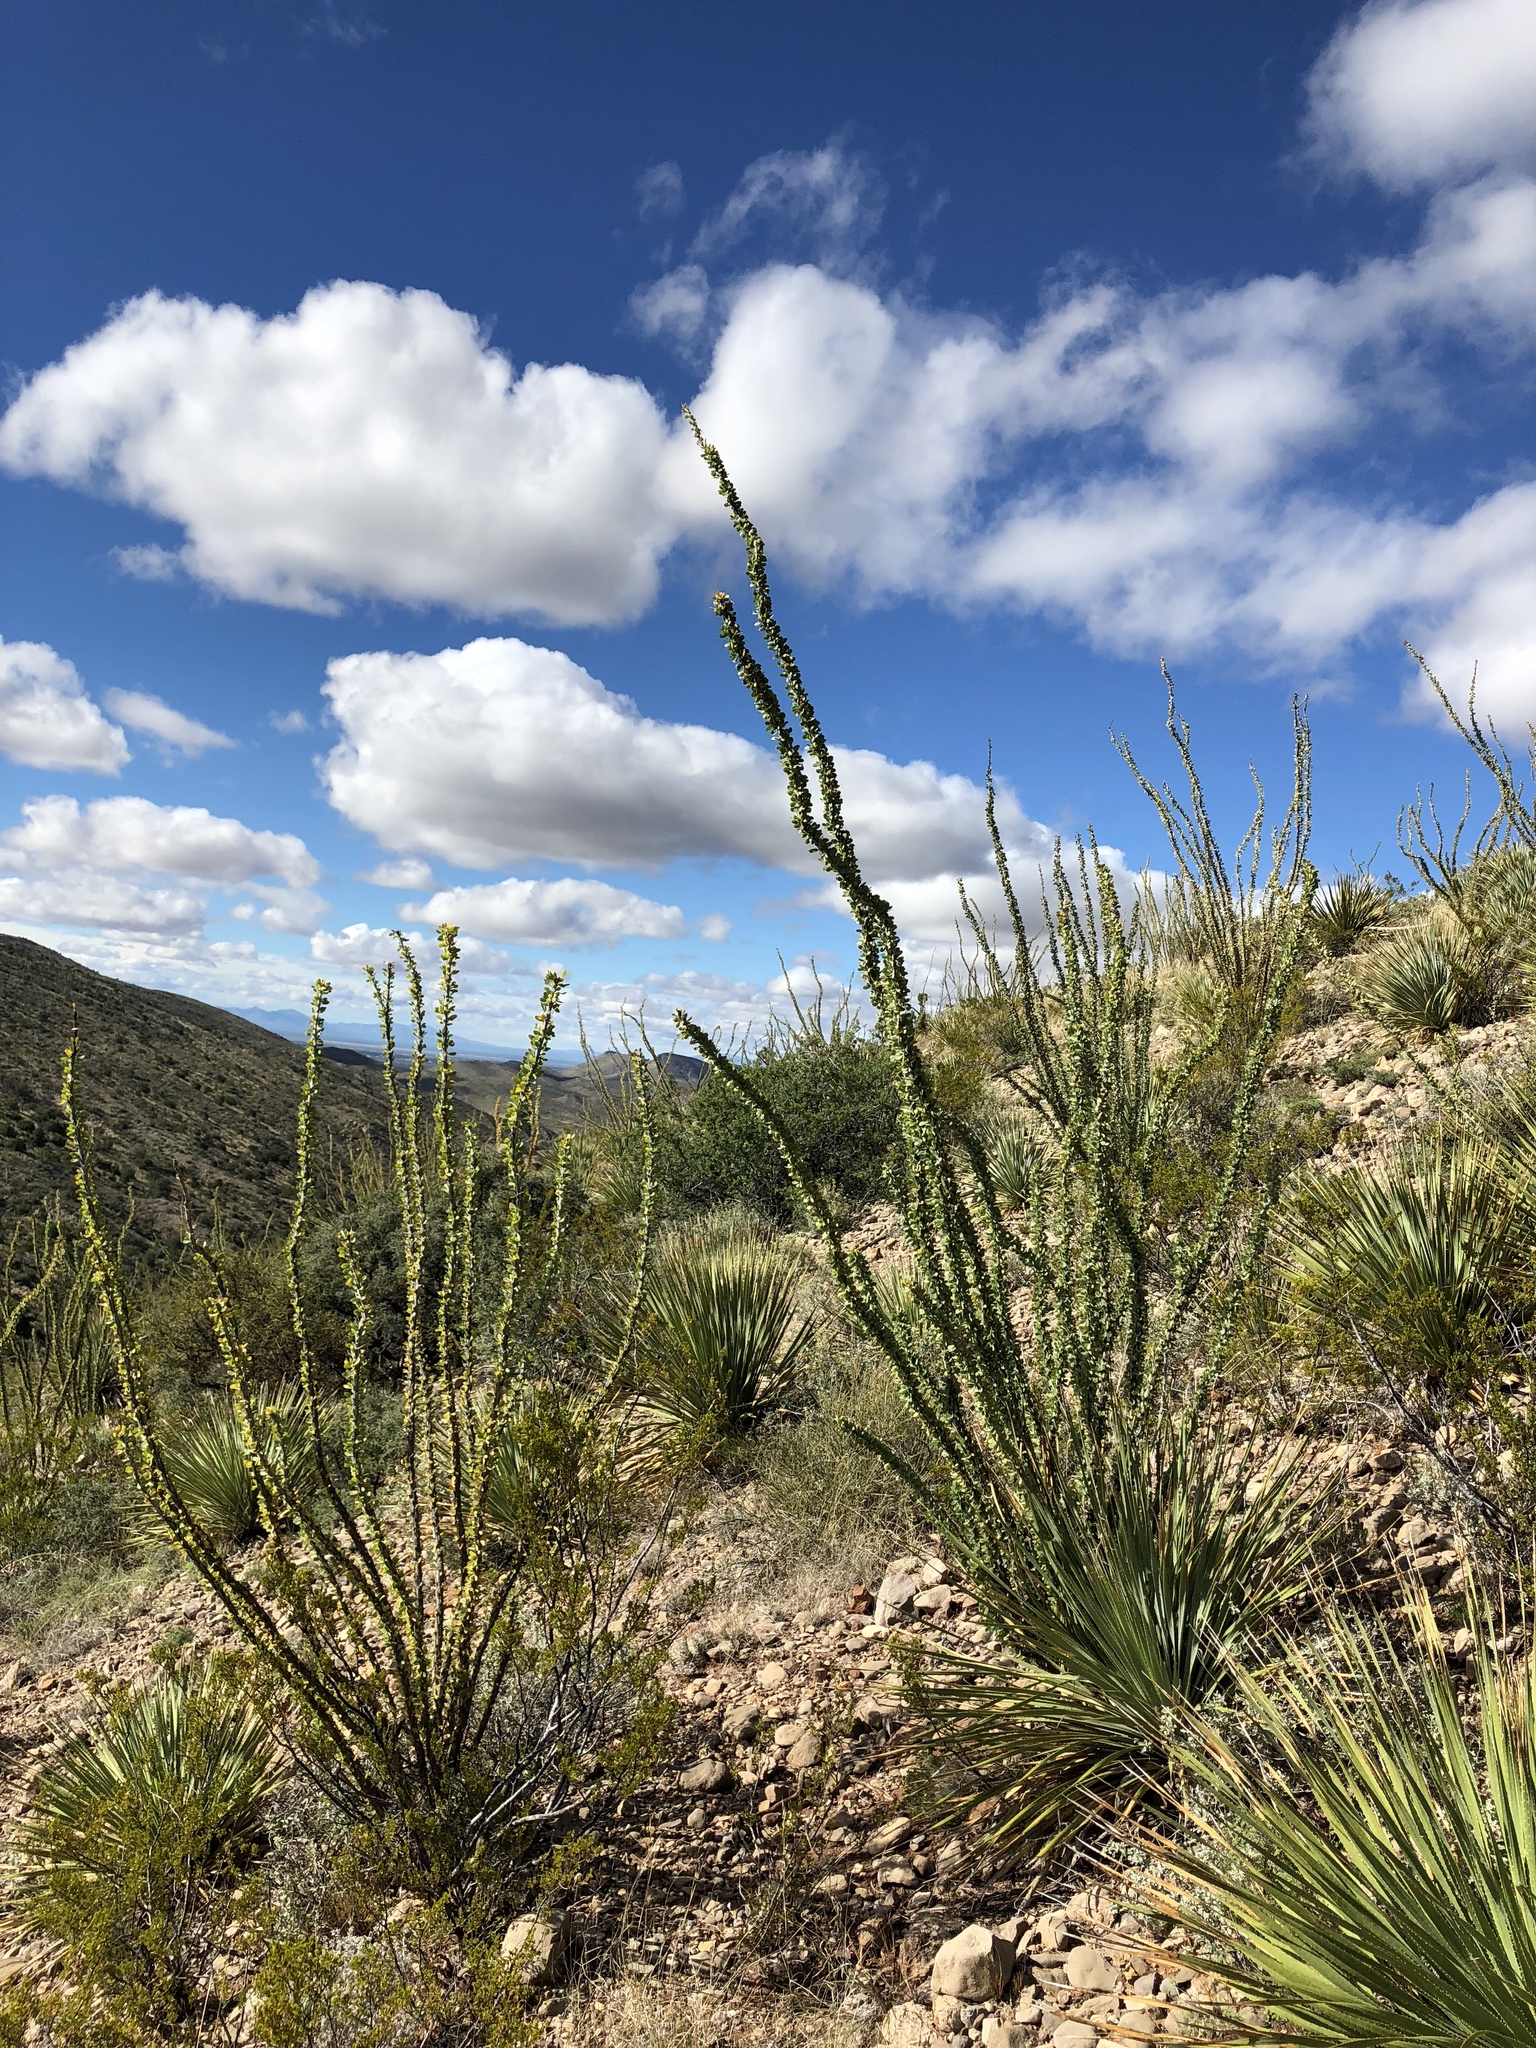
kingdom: Plantae
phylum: Tracheophyta
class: Magnoliopsida
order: Ericales
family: Fouquieriaceae
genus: Fouquieria
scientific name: Fouquieria splendens
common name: Vine-cactus
